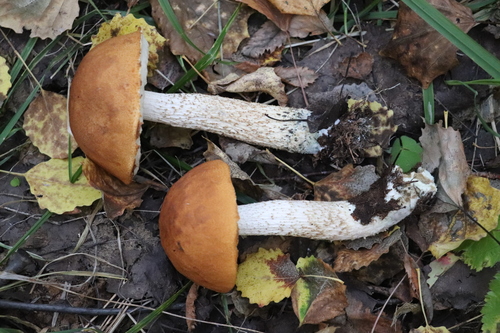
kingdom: Fungi
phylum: Basidiomycota
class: Agaricomycetes
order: Boletales
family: Boletaceae
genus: Leccinum
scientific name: Leccinum albostipitatum
